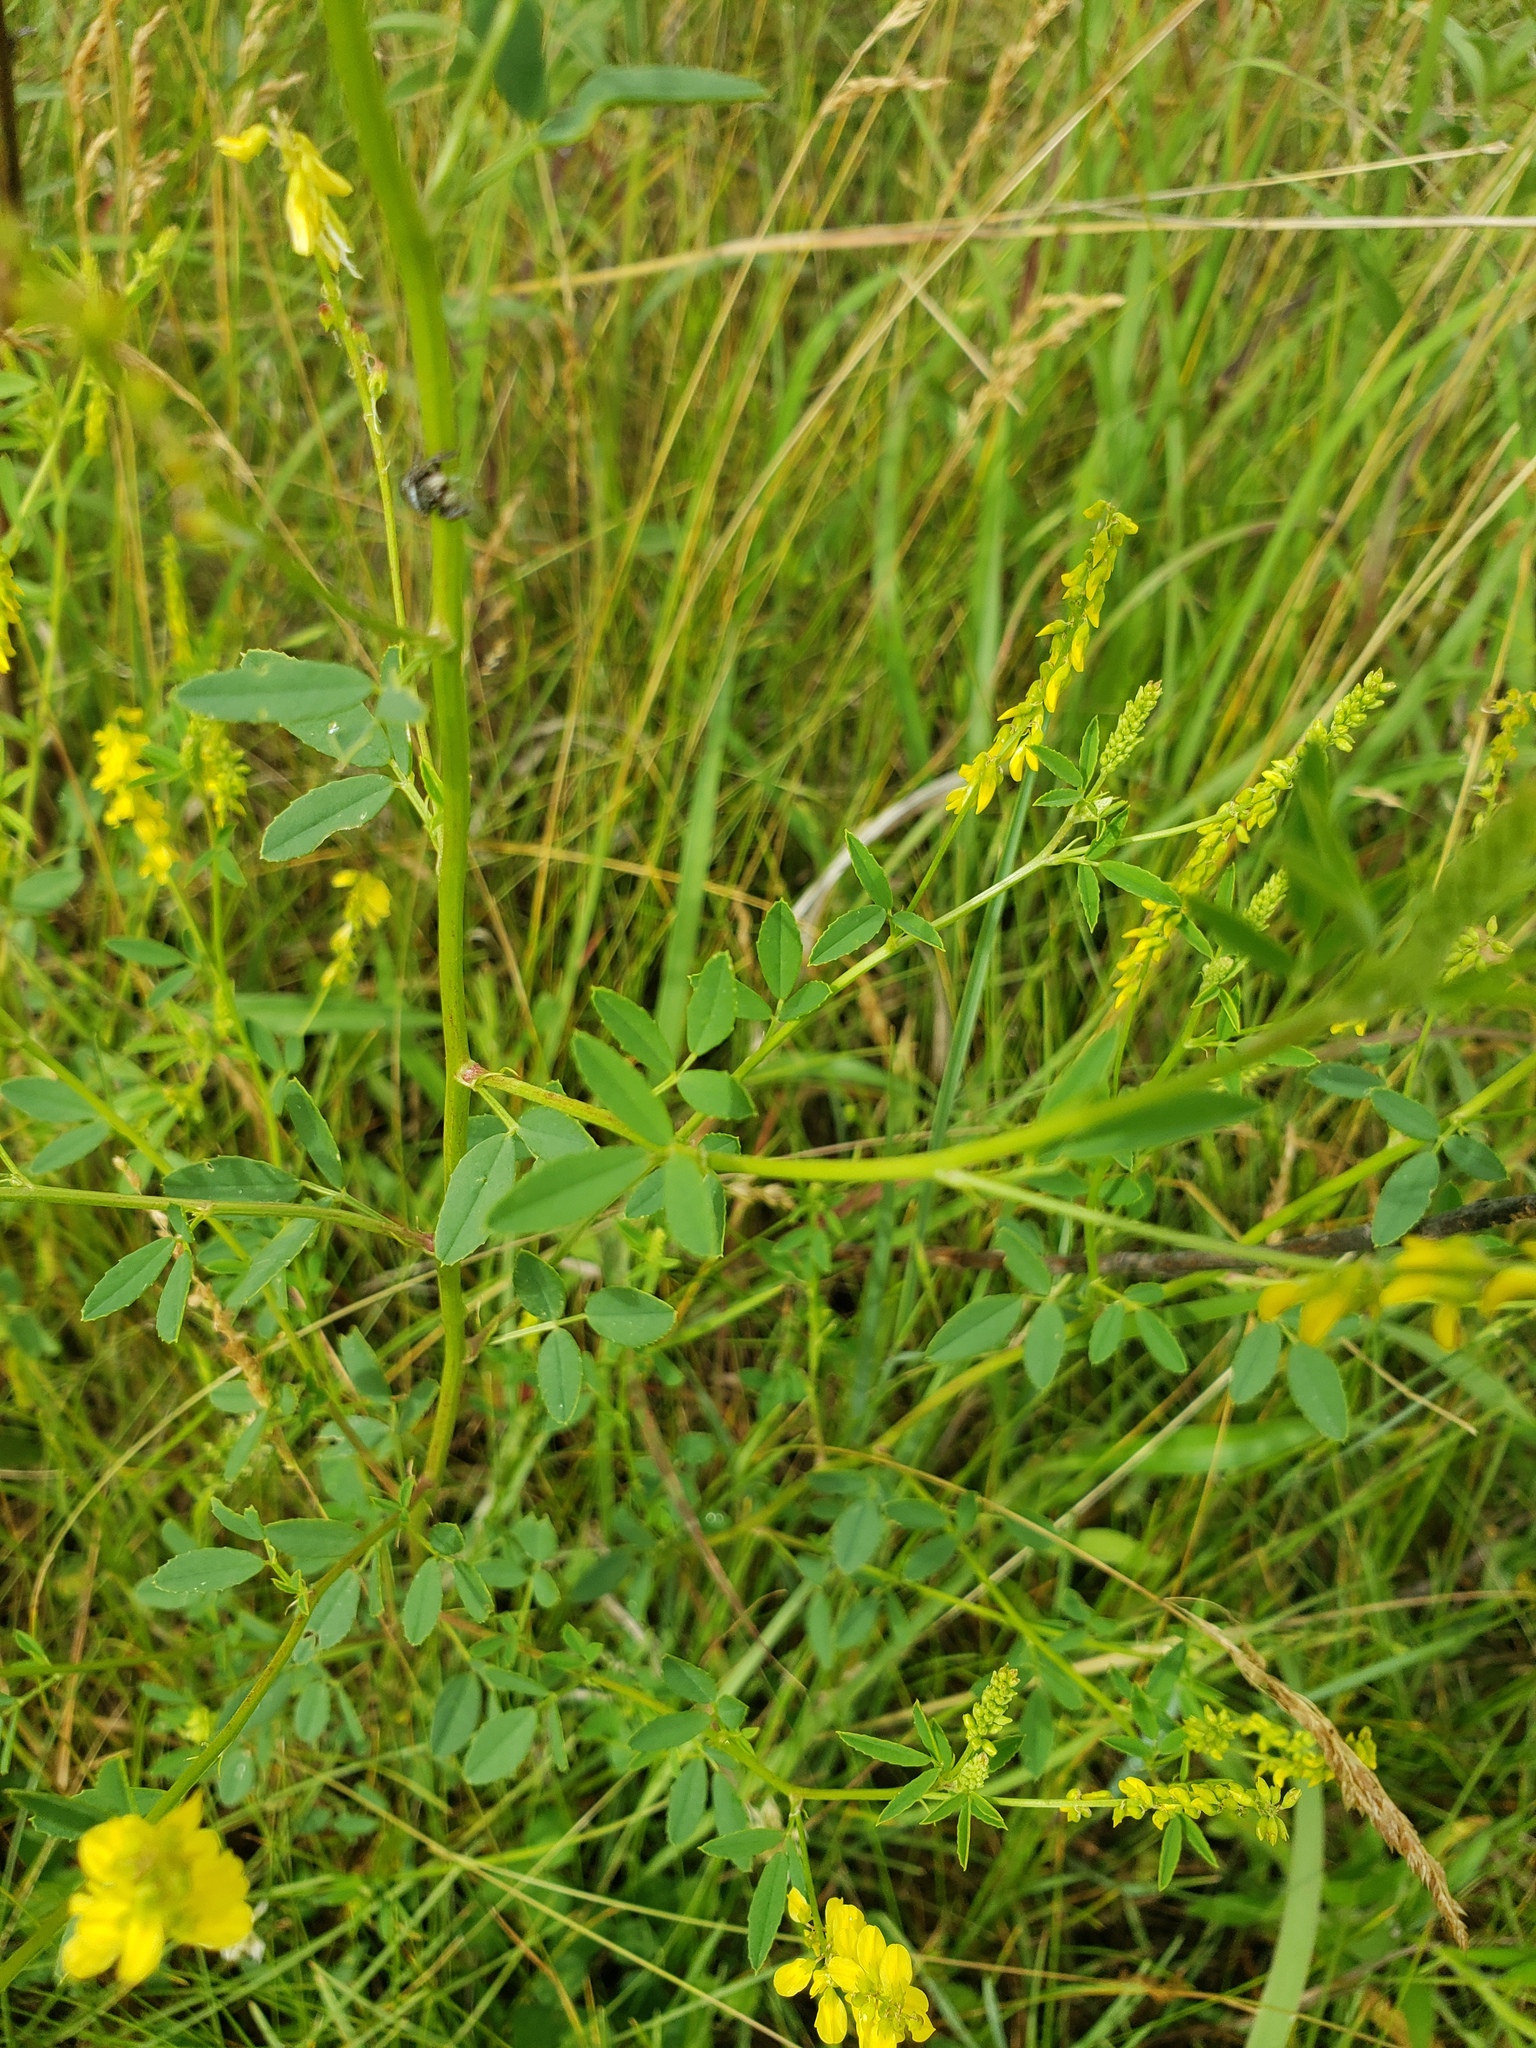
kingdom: Plantae
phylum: Tracheophyta
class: Magnoliopsida
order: Fabales
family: Fabaceae
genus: Melilotus
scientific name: Melilotus officinalis
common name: Sweetclover
